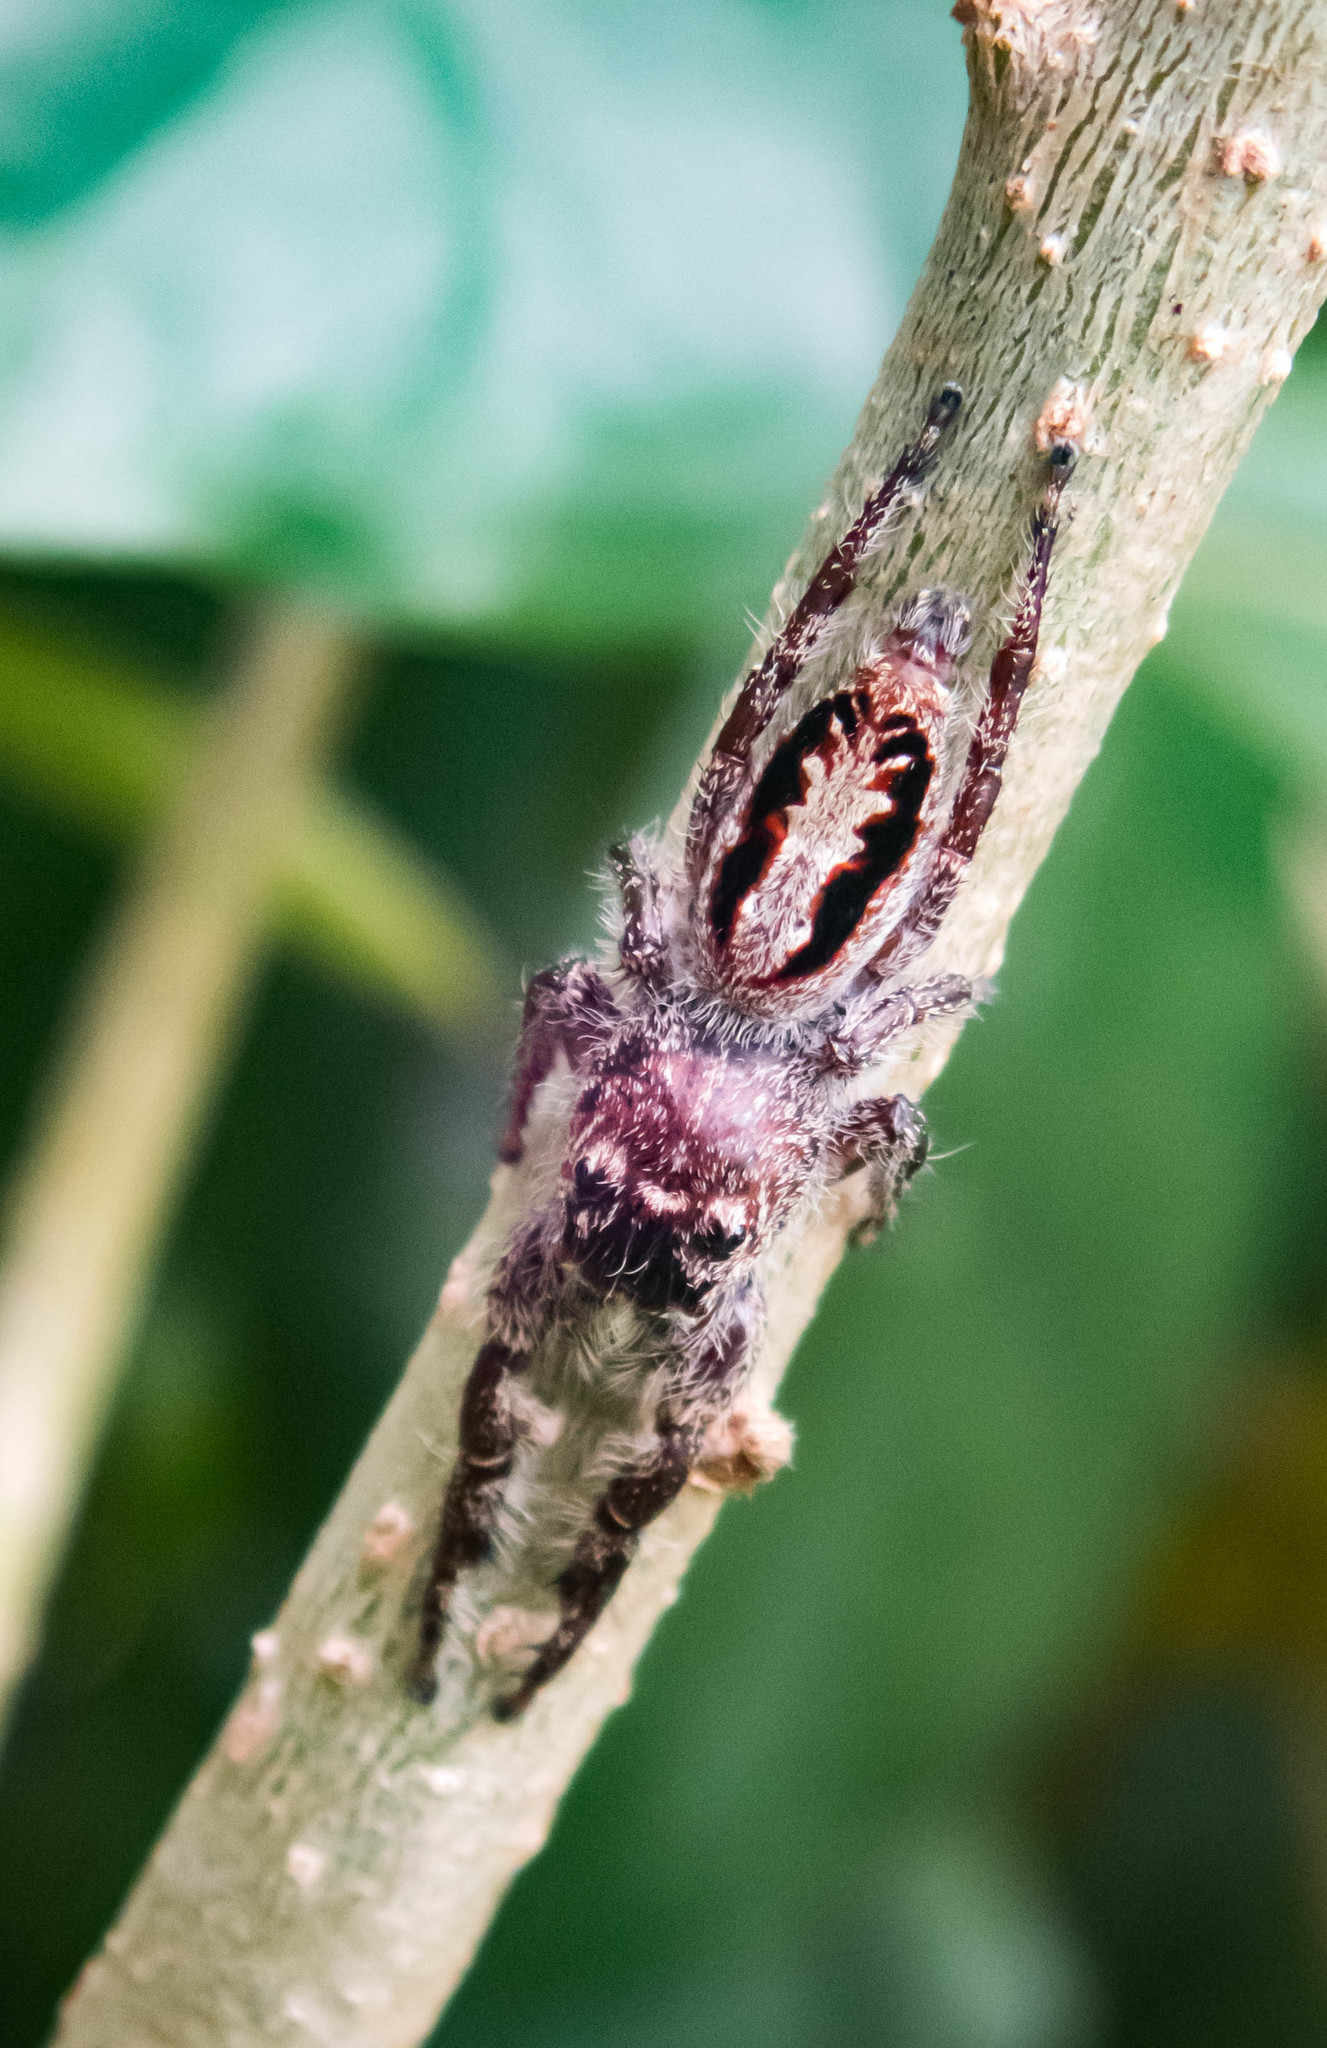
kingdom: Animalia
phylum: Arthropoda
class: Arachnida
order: Araneae
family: Salticidae
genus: Sandalodes
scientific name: Sandalodes superbus
